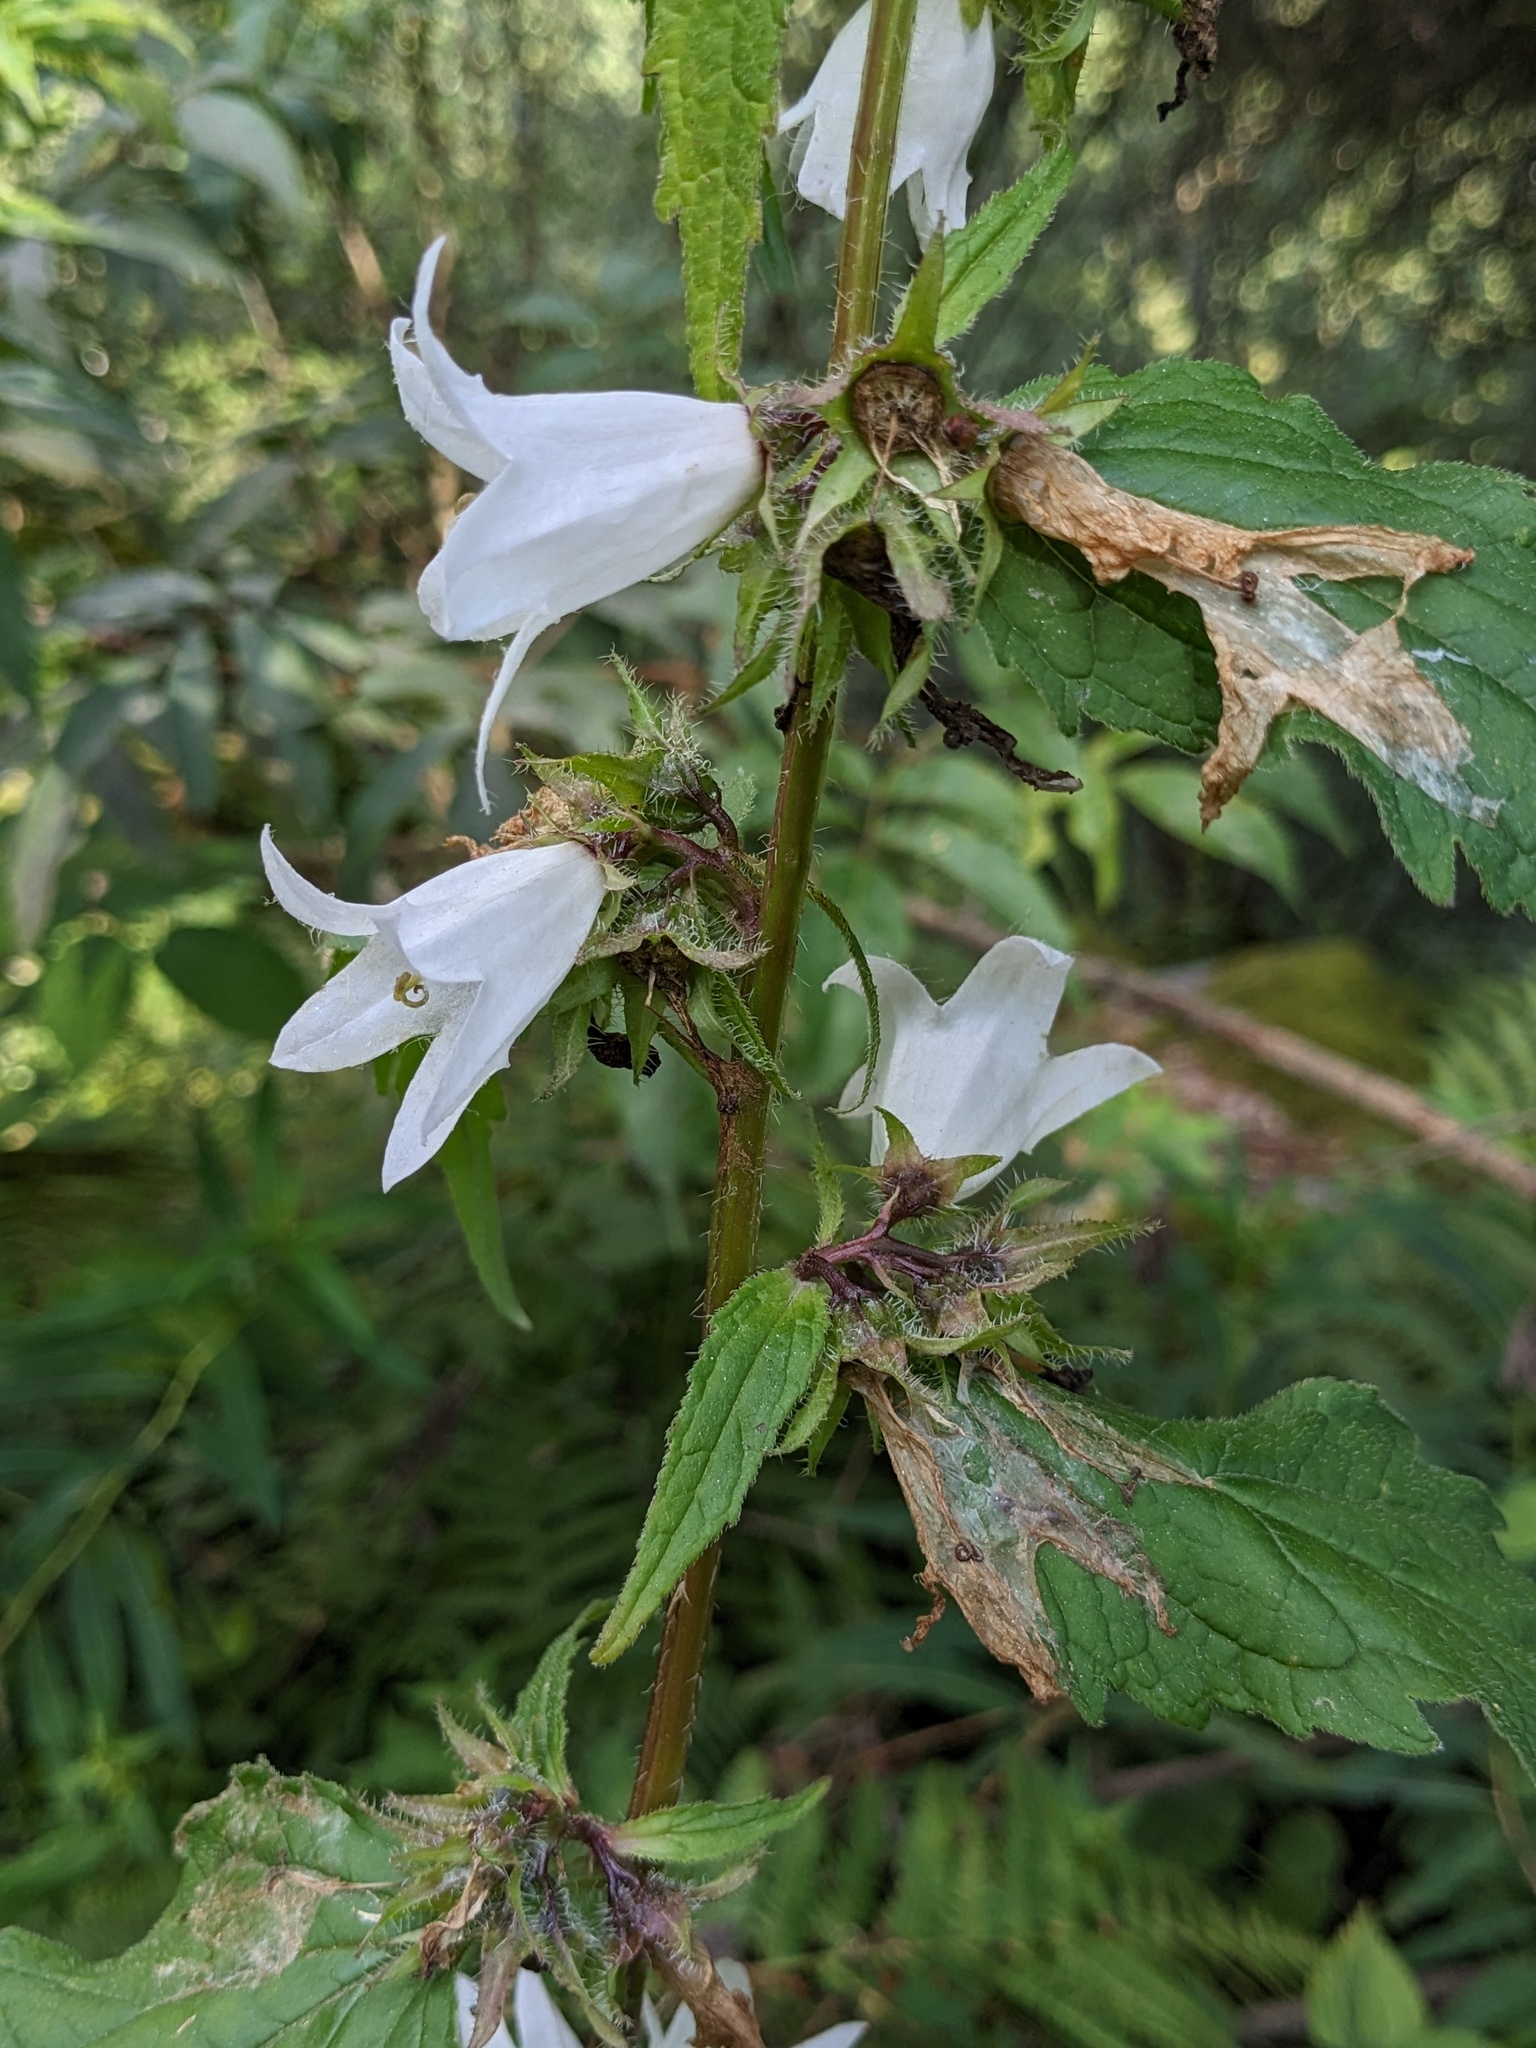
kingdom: Plantae
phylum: Tracheophyta
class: Magnoliopsida
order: Asterales
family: Campanulaceae
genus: Campanula
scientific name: Campanula trachelium
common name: Nettle-leaved bellflower
